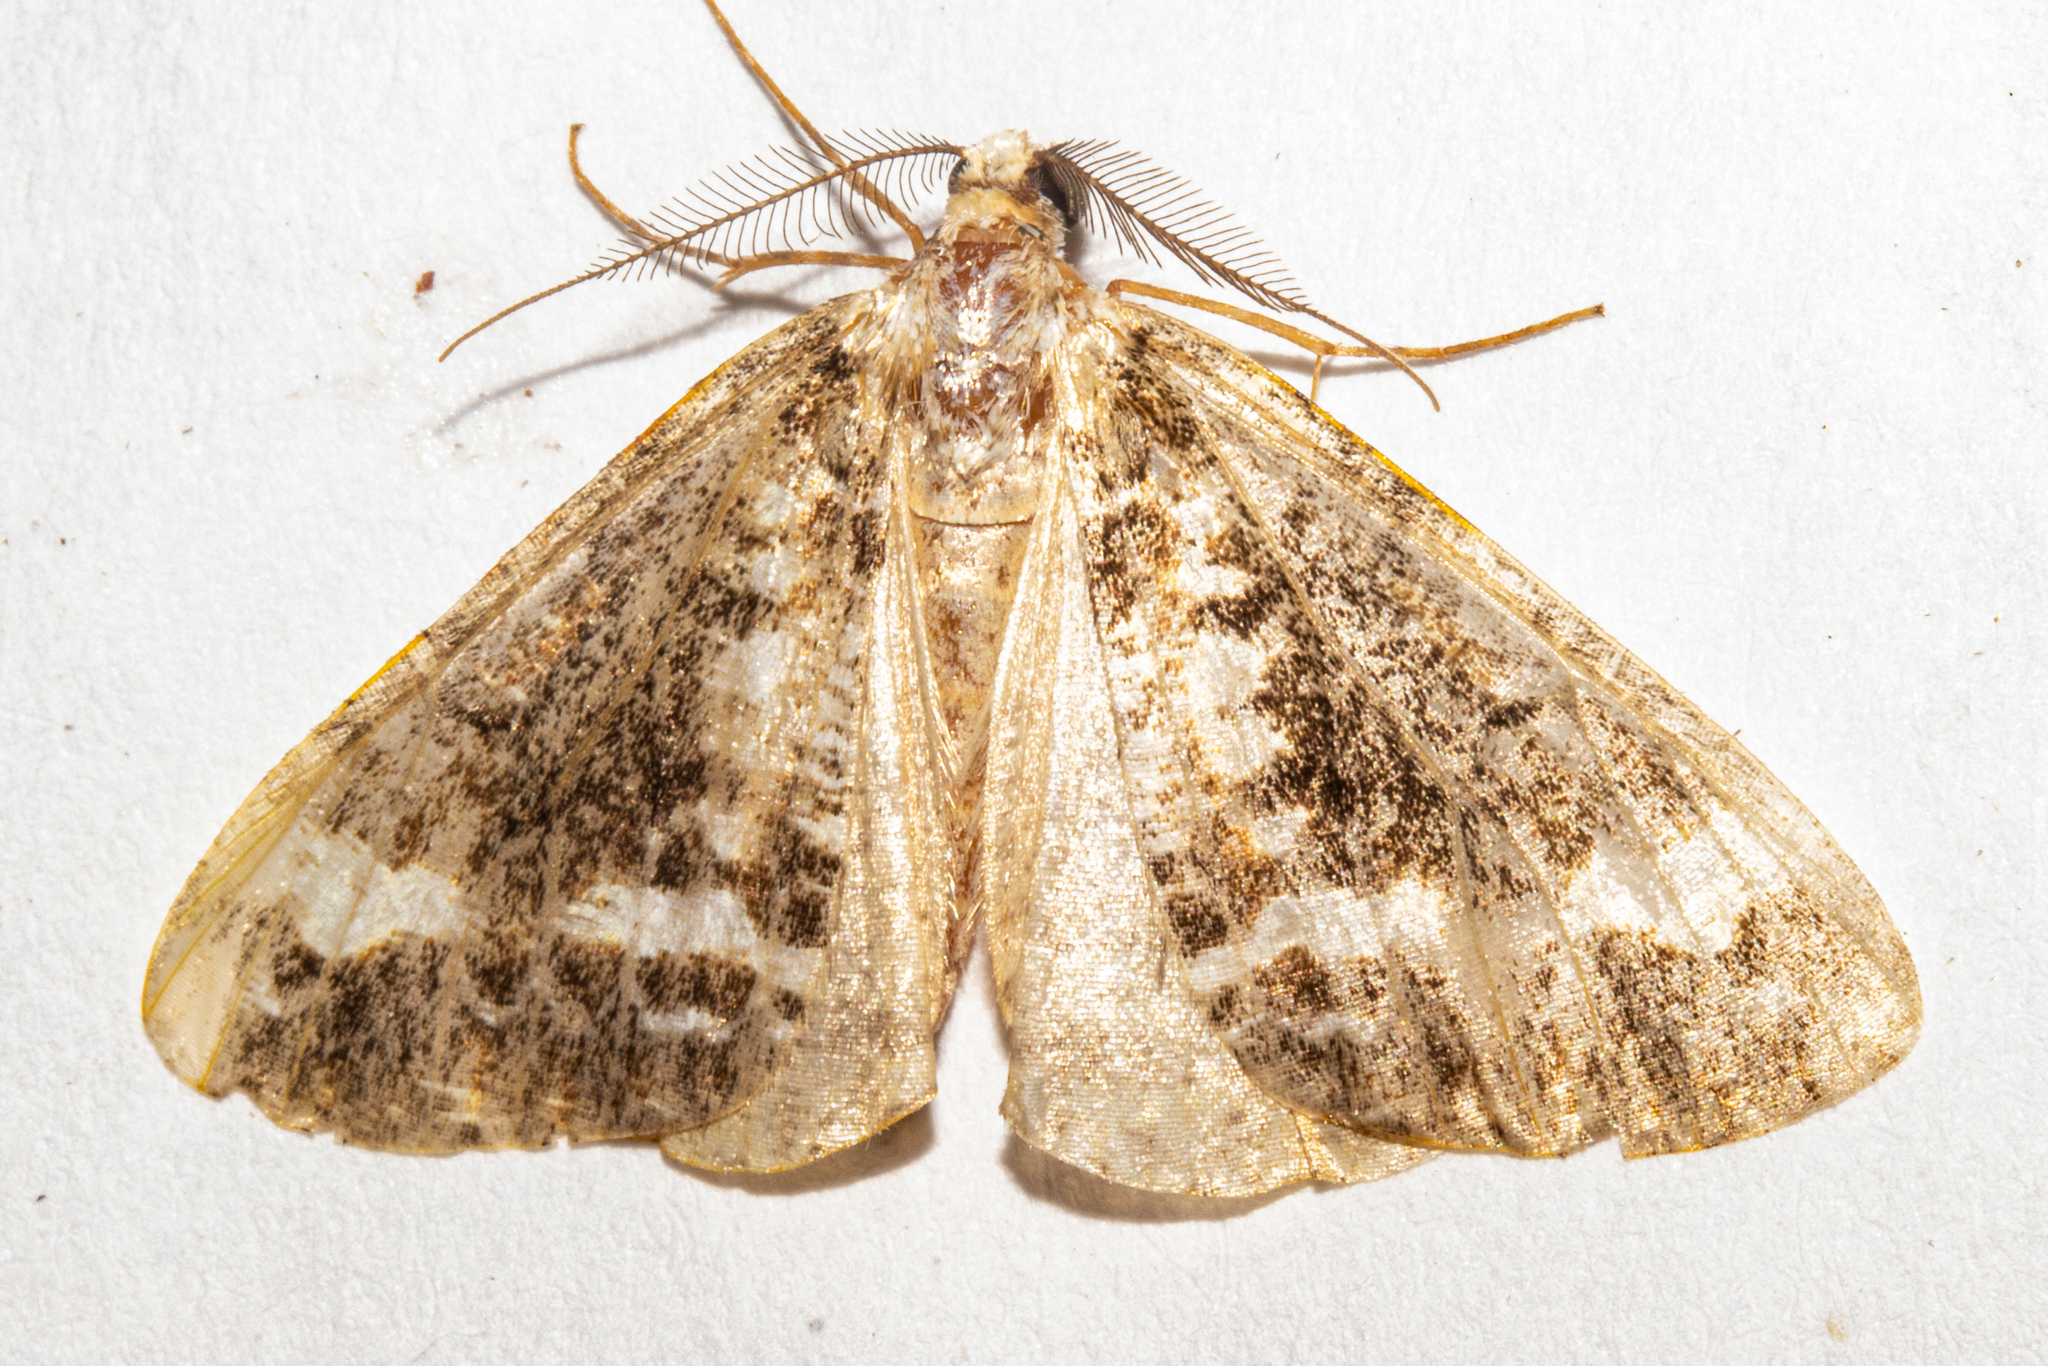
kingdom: Animalia
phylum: Arthropoda
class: Insecta
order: Lepidoptera
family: Geometridae
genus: Pseudocoremia
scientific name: Pseudocoremia leucelaea
